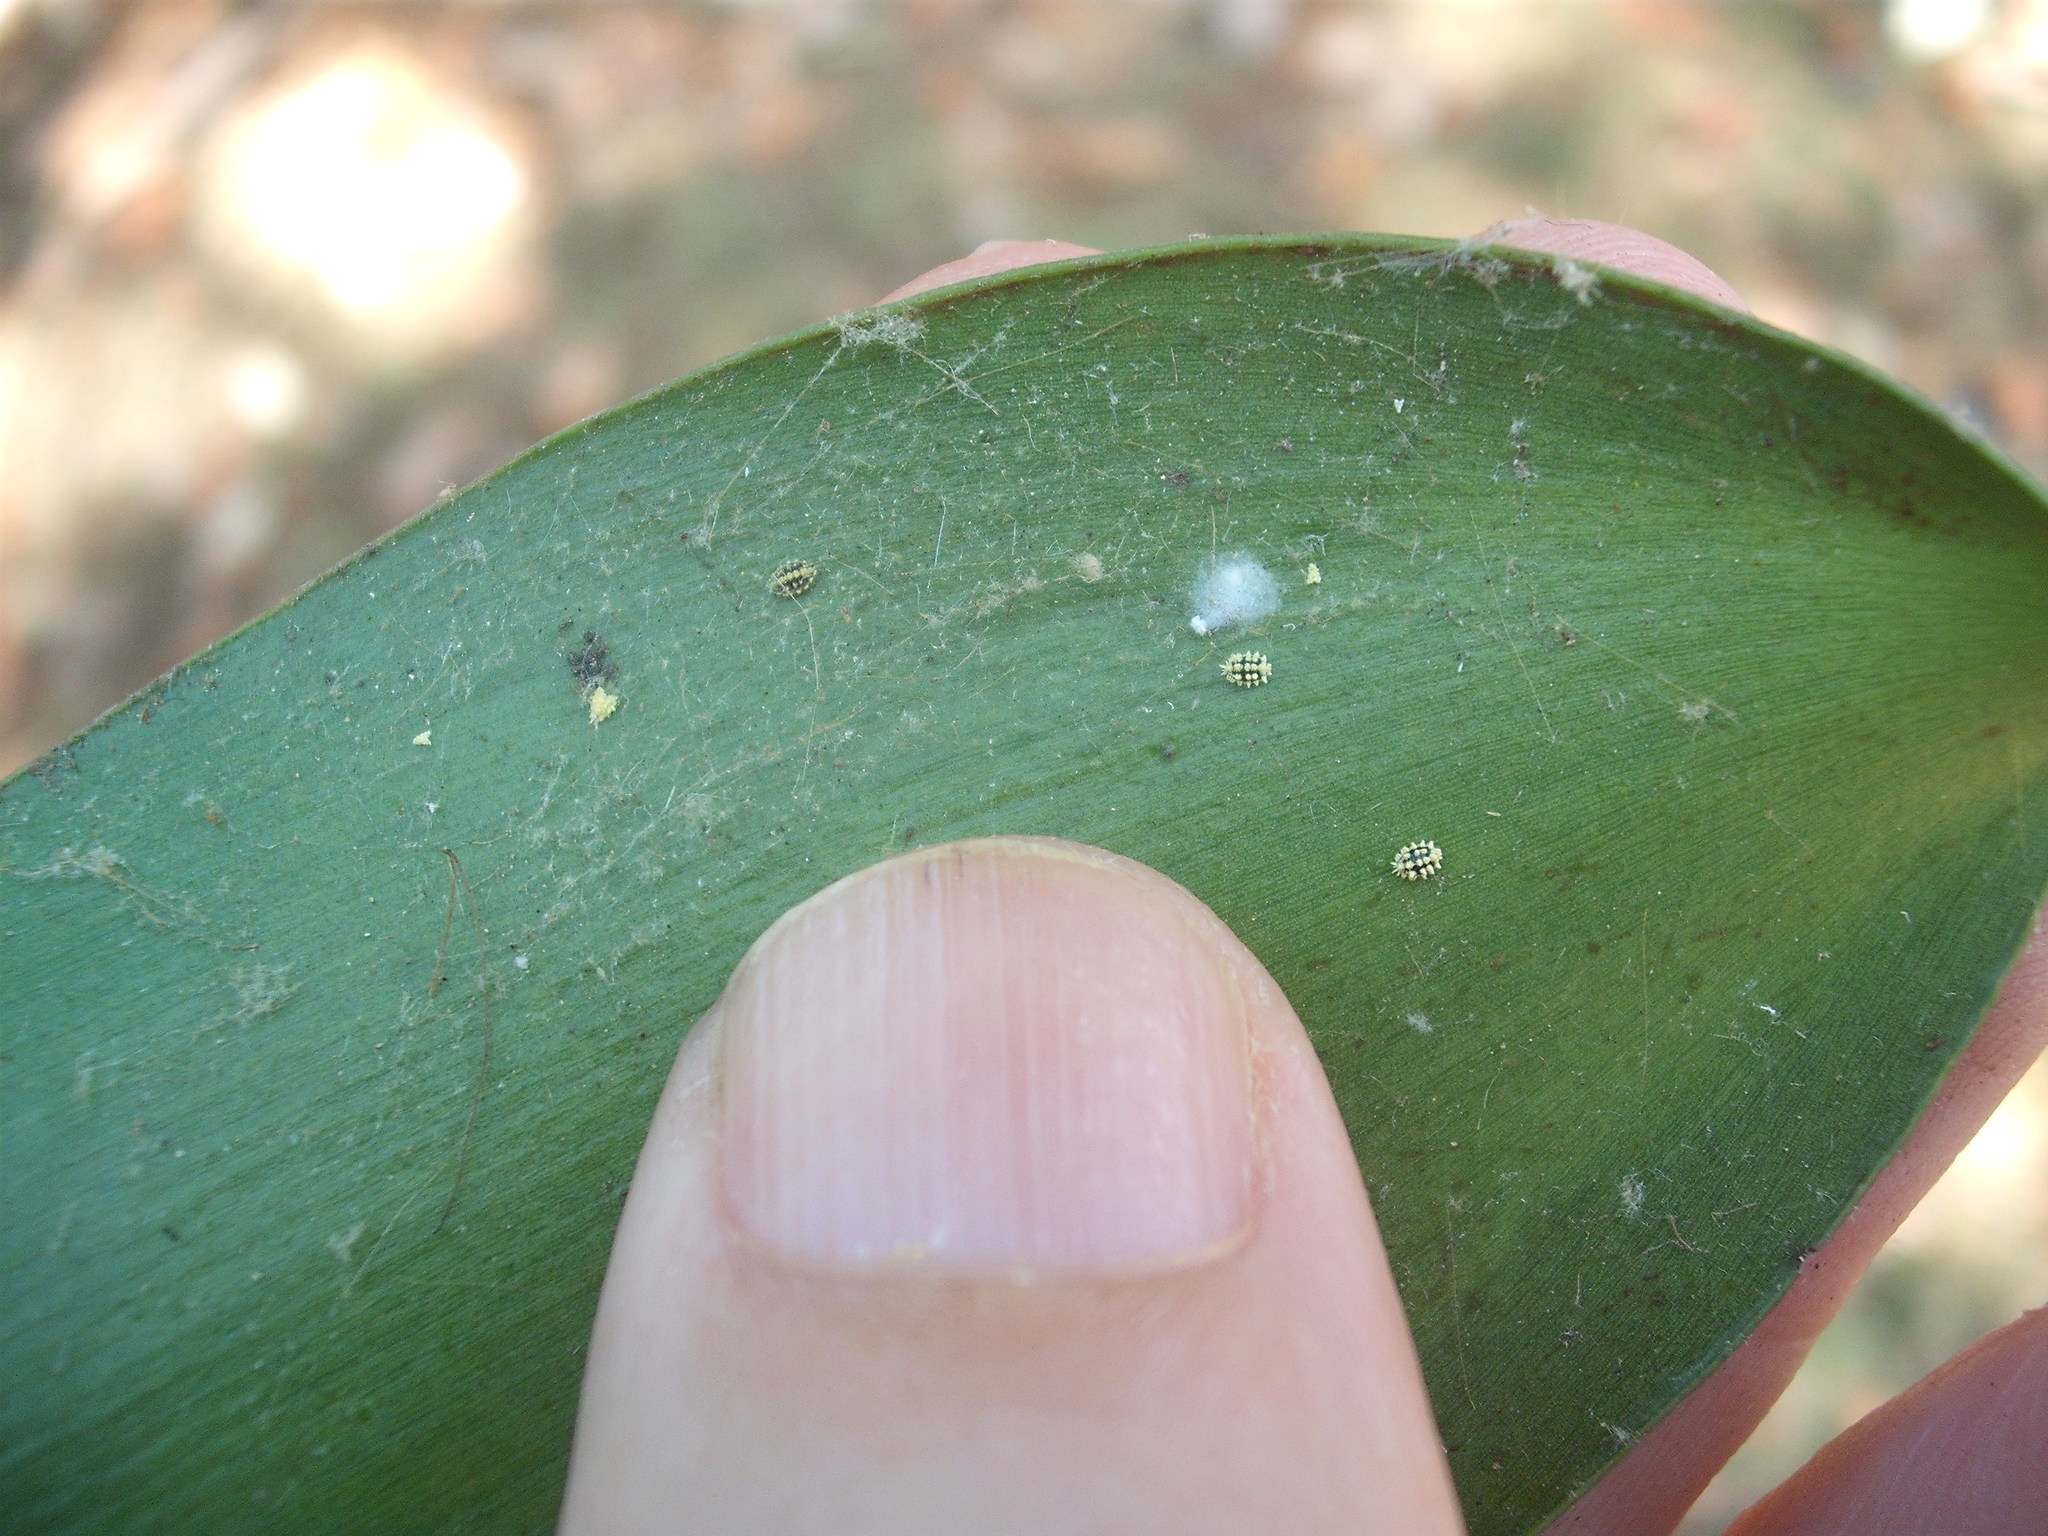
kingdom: Animalia
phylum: Arthropoda
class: Insecta
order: Hemiptera
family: Pseudococcidae
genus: Nipaecoccus
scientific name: Nipaecoccus aurilanatus
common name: Mealybug
